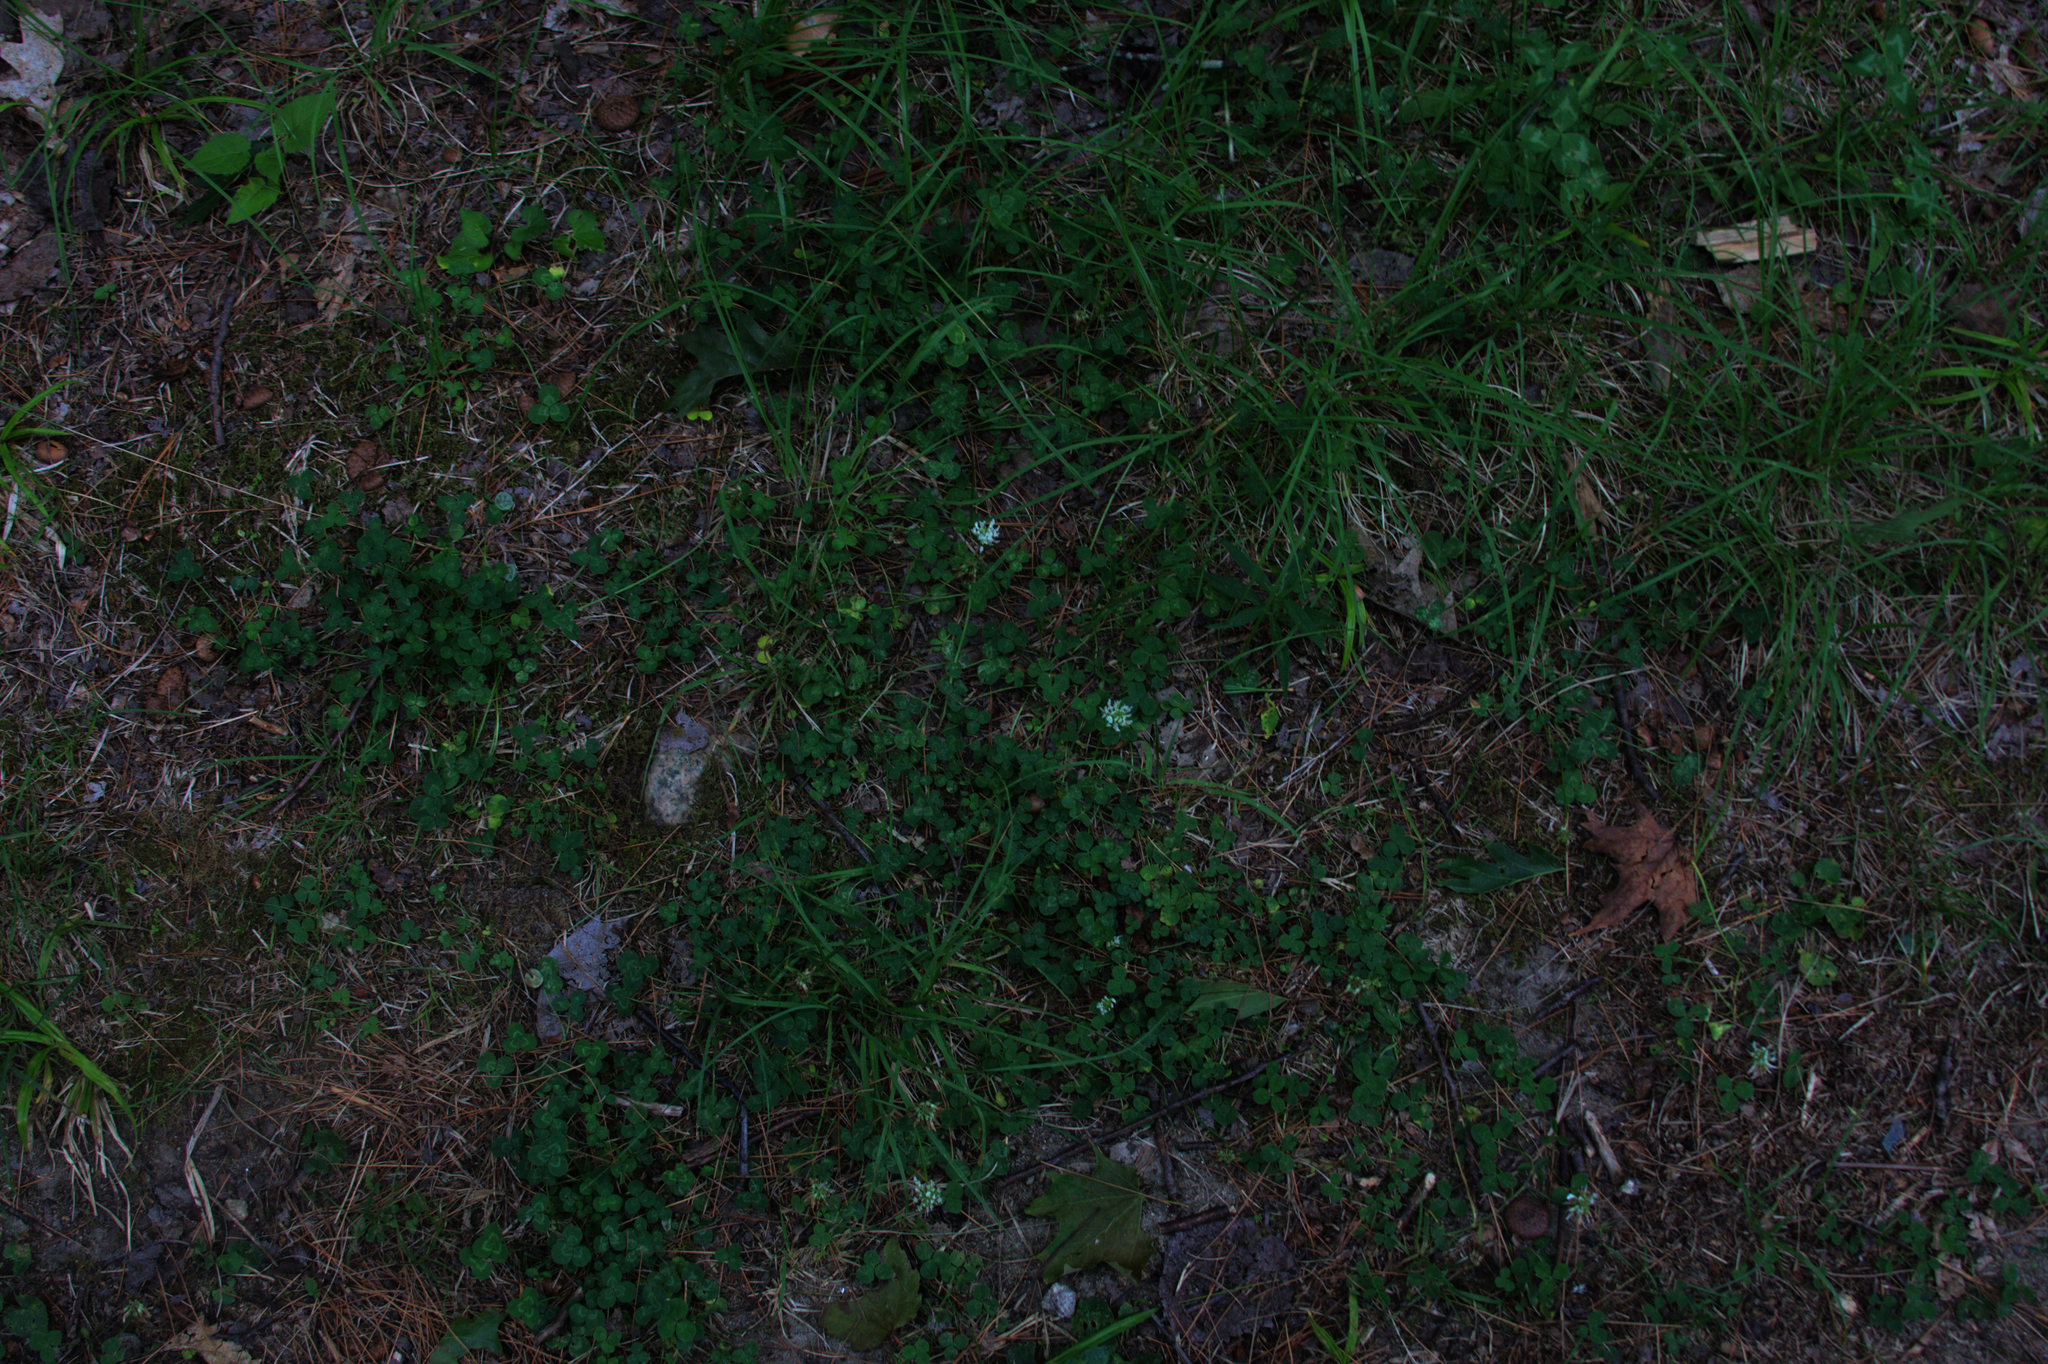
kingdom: Plantae
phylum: Tracheophyta
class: Magnoliopsida
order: Fabales
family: Fabaceae
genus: Trifolium
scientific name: Trifolium repens
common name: White clover
